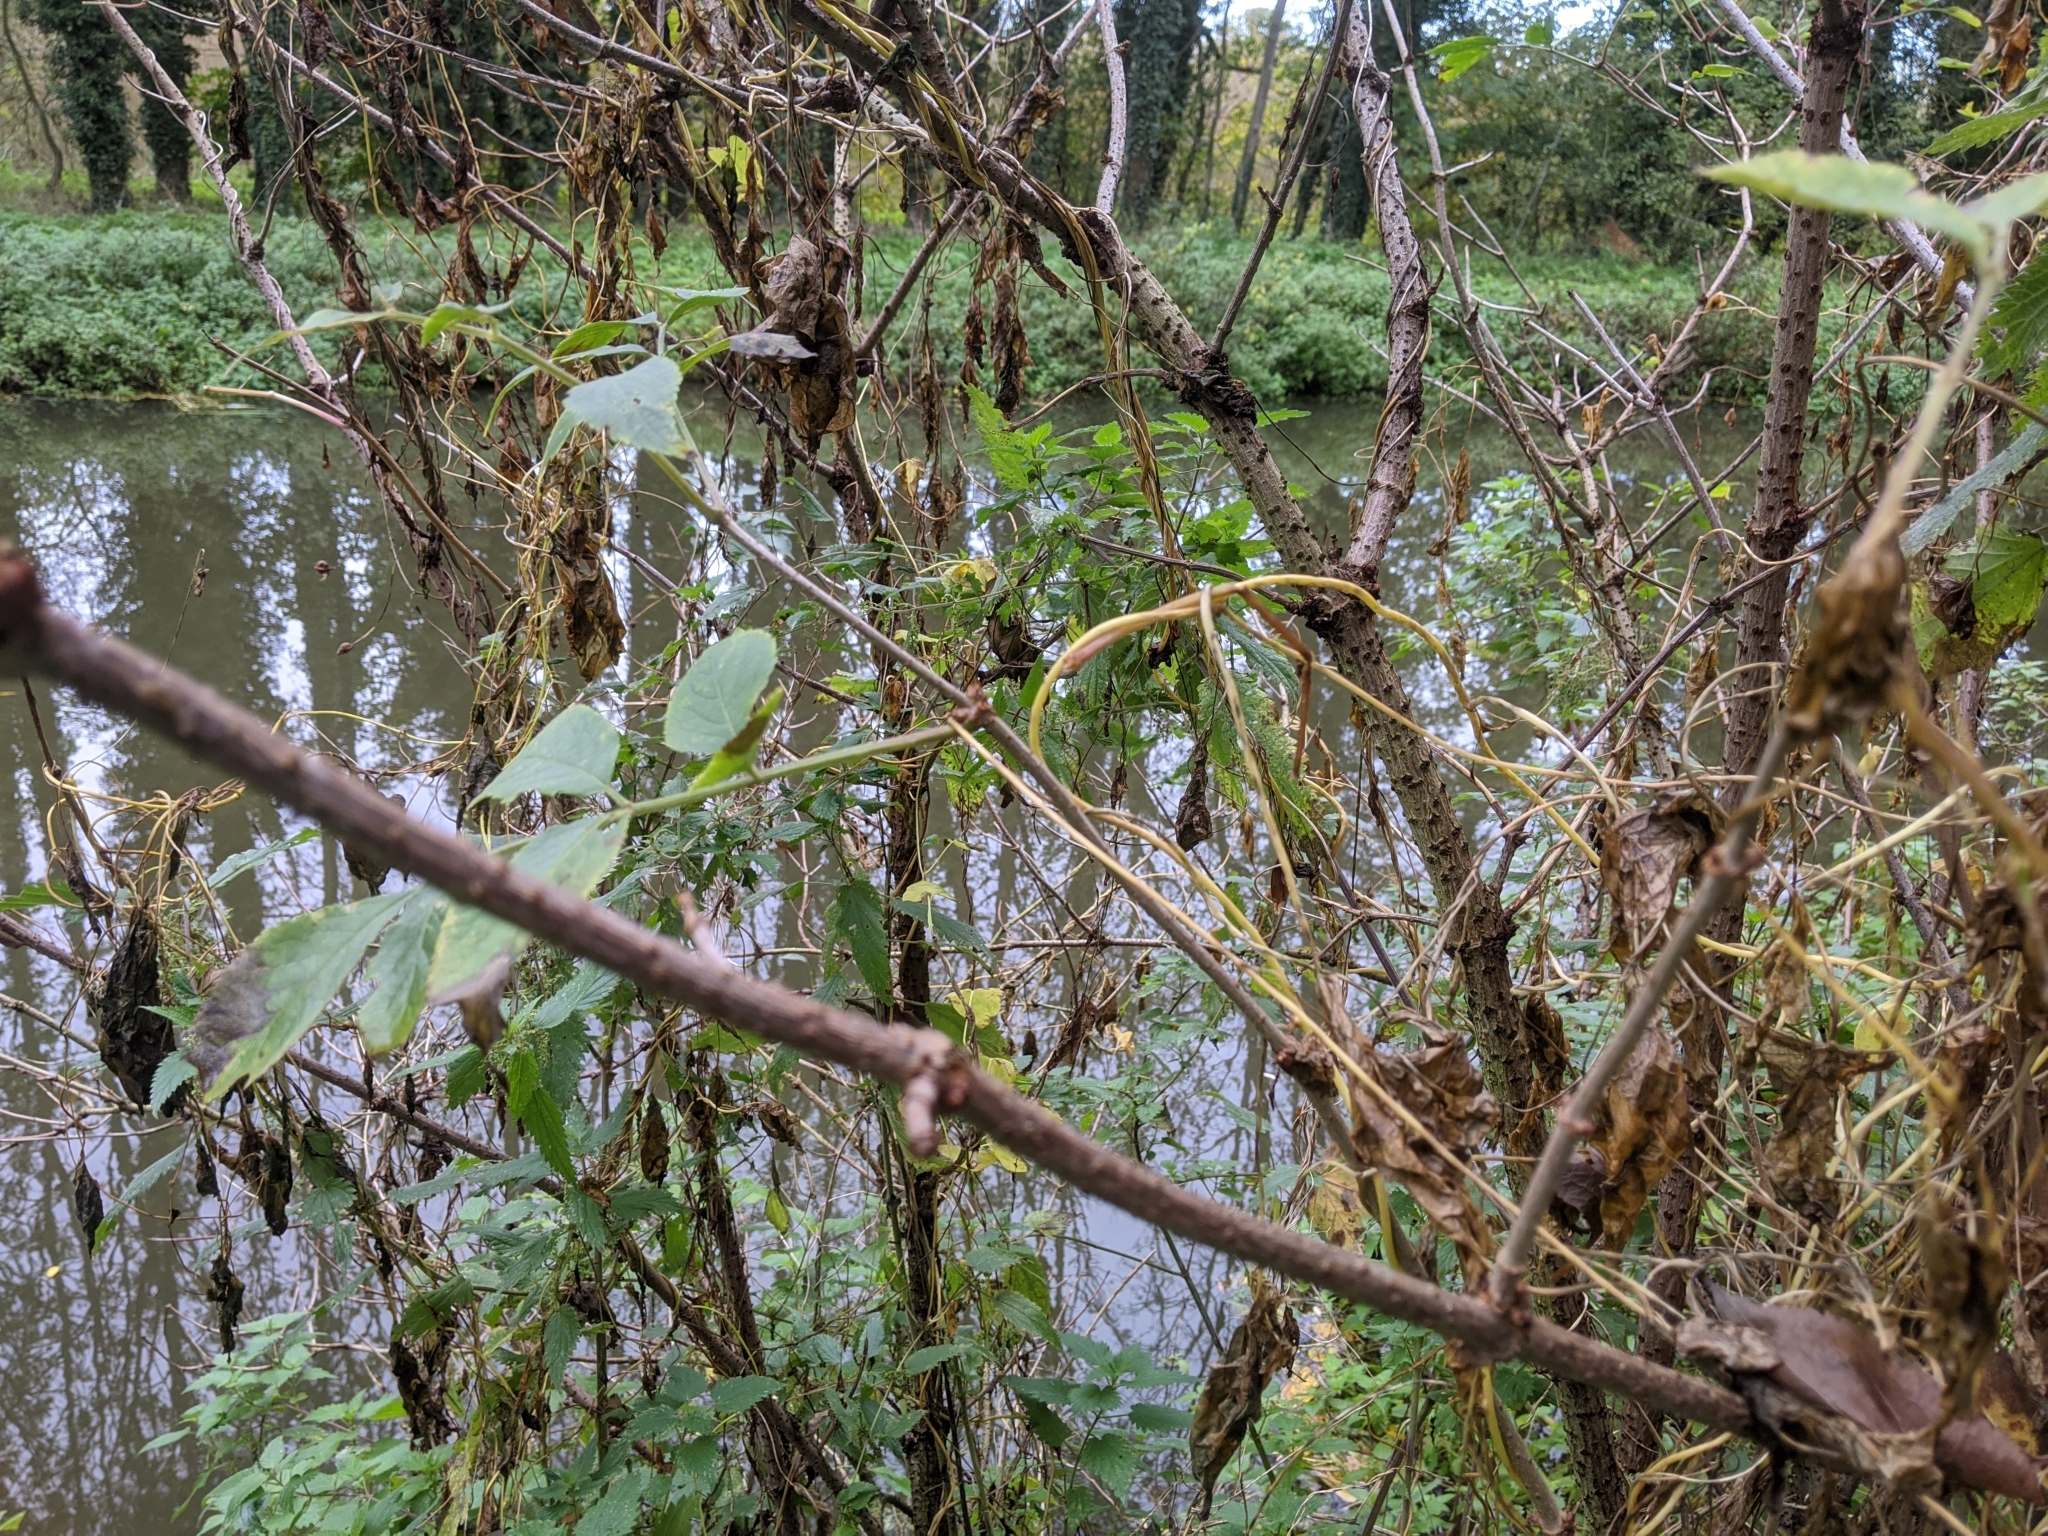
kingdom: Plantae
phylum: Tracheophyta
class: Magnoliopsida
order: Dipsacales
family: Viburnaceae
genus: Sambucus
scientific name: Sambucus nigra
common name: Elder
